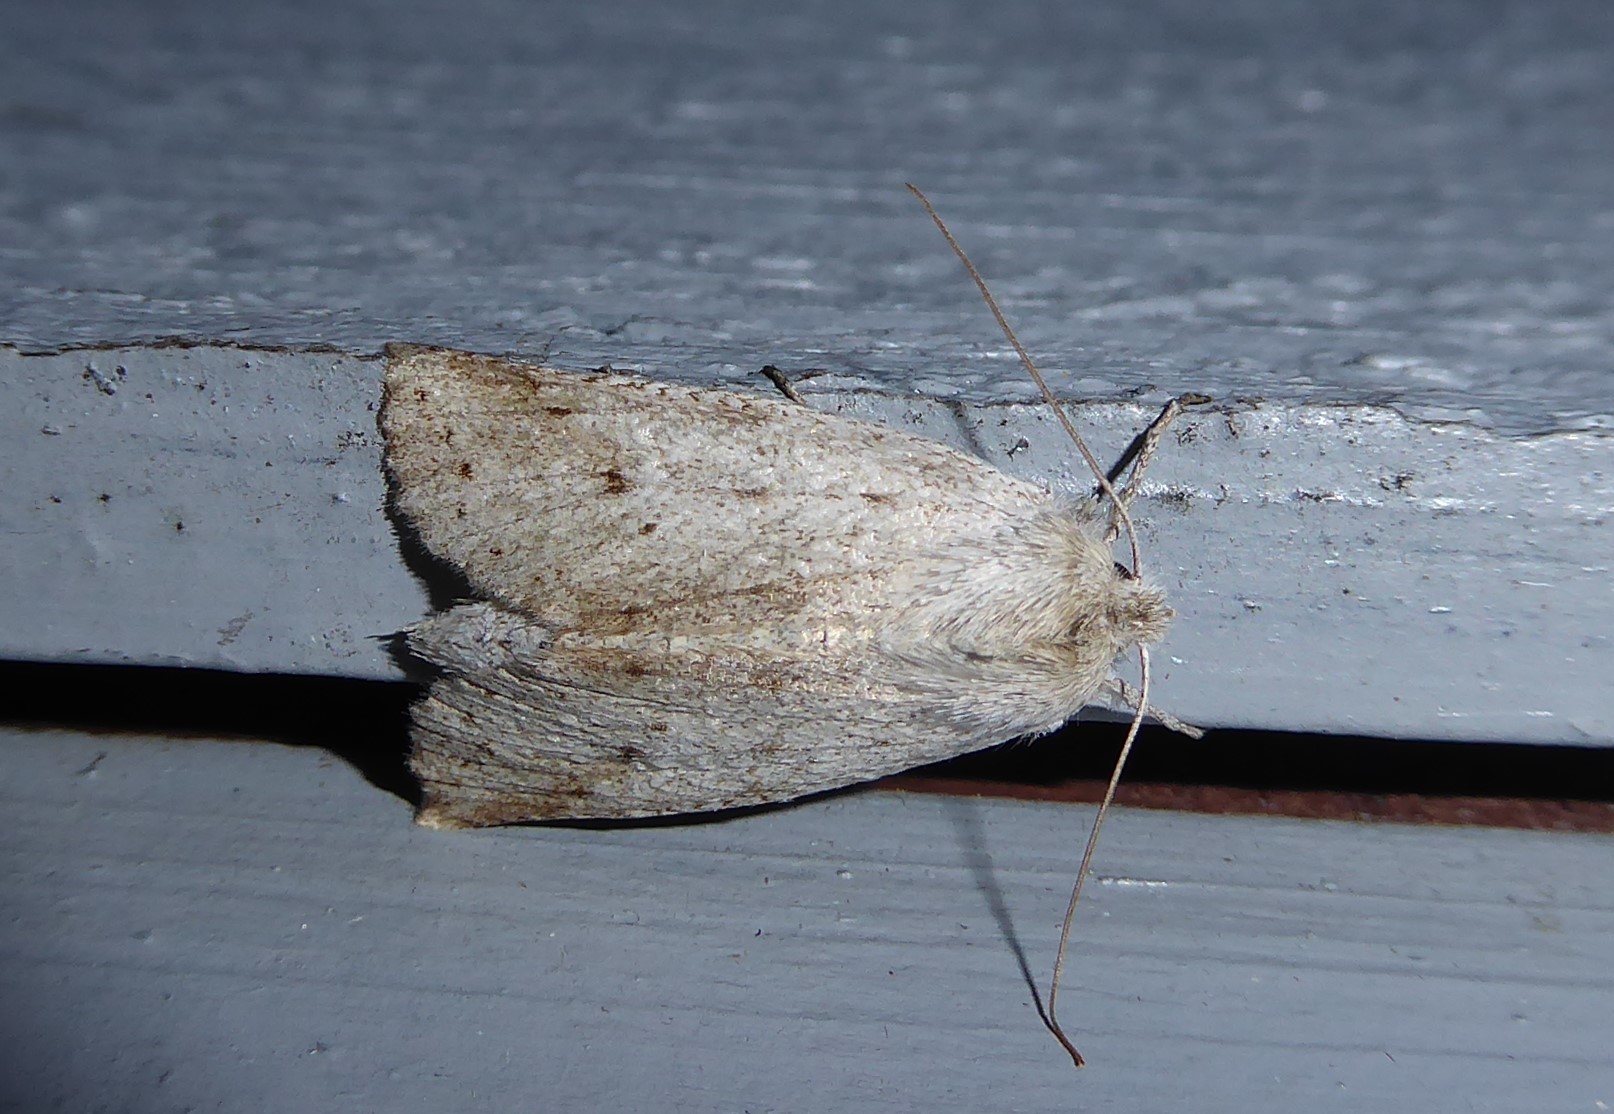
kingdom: Animalia
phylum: Arthropoda
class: Insecta
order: Lepidoptera
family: Geometridae
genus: Declana
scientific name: Declana leptomera
